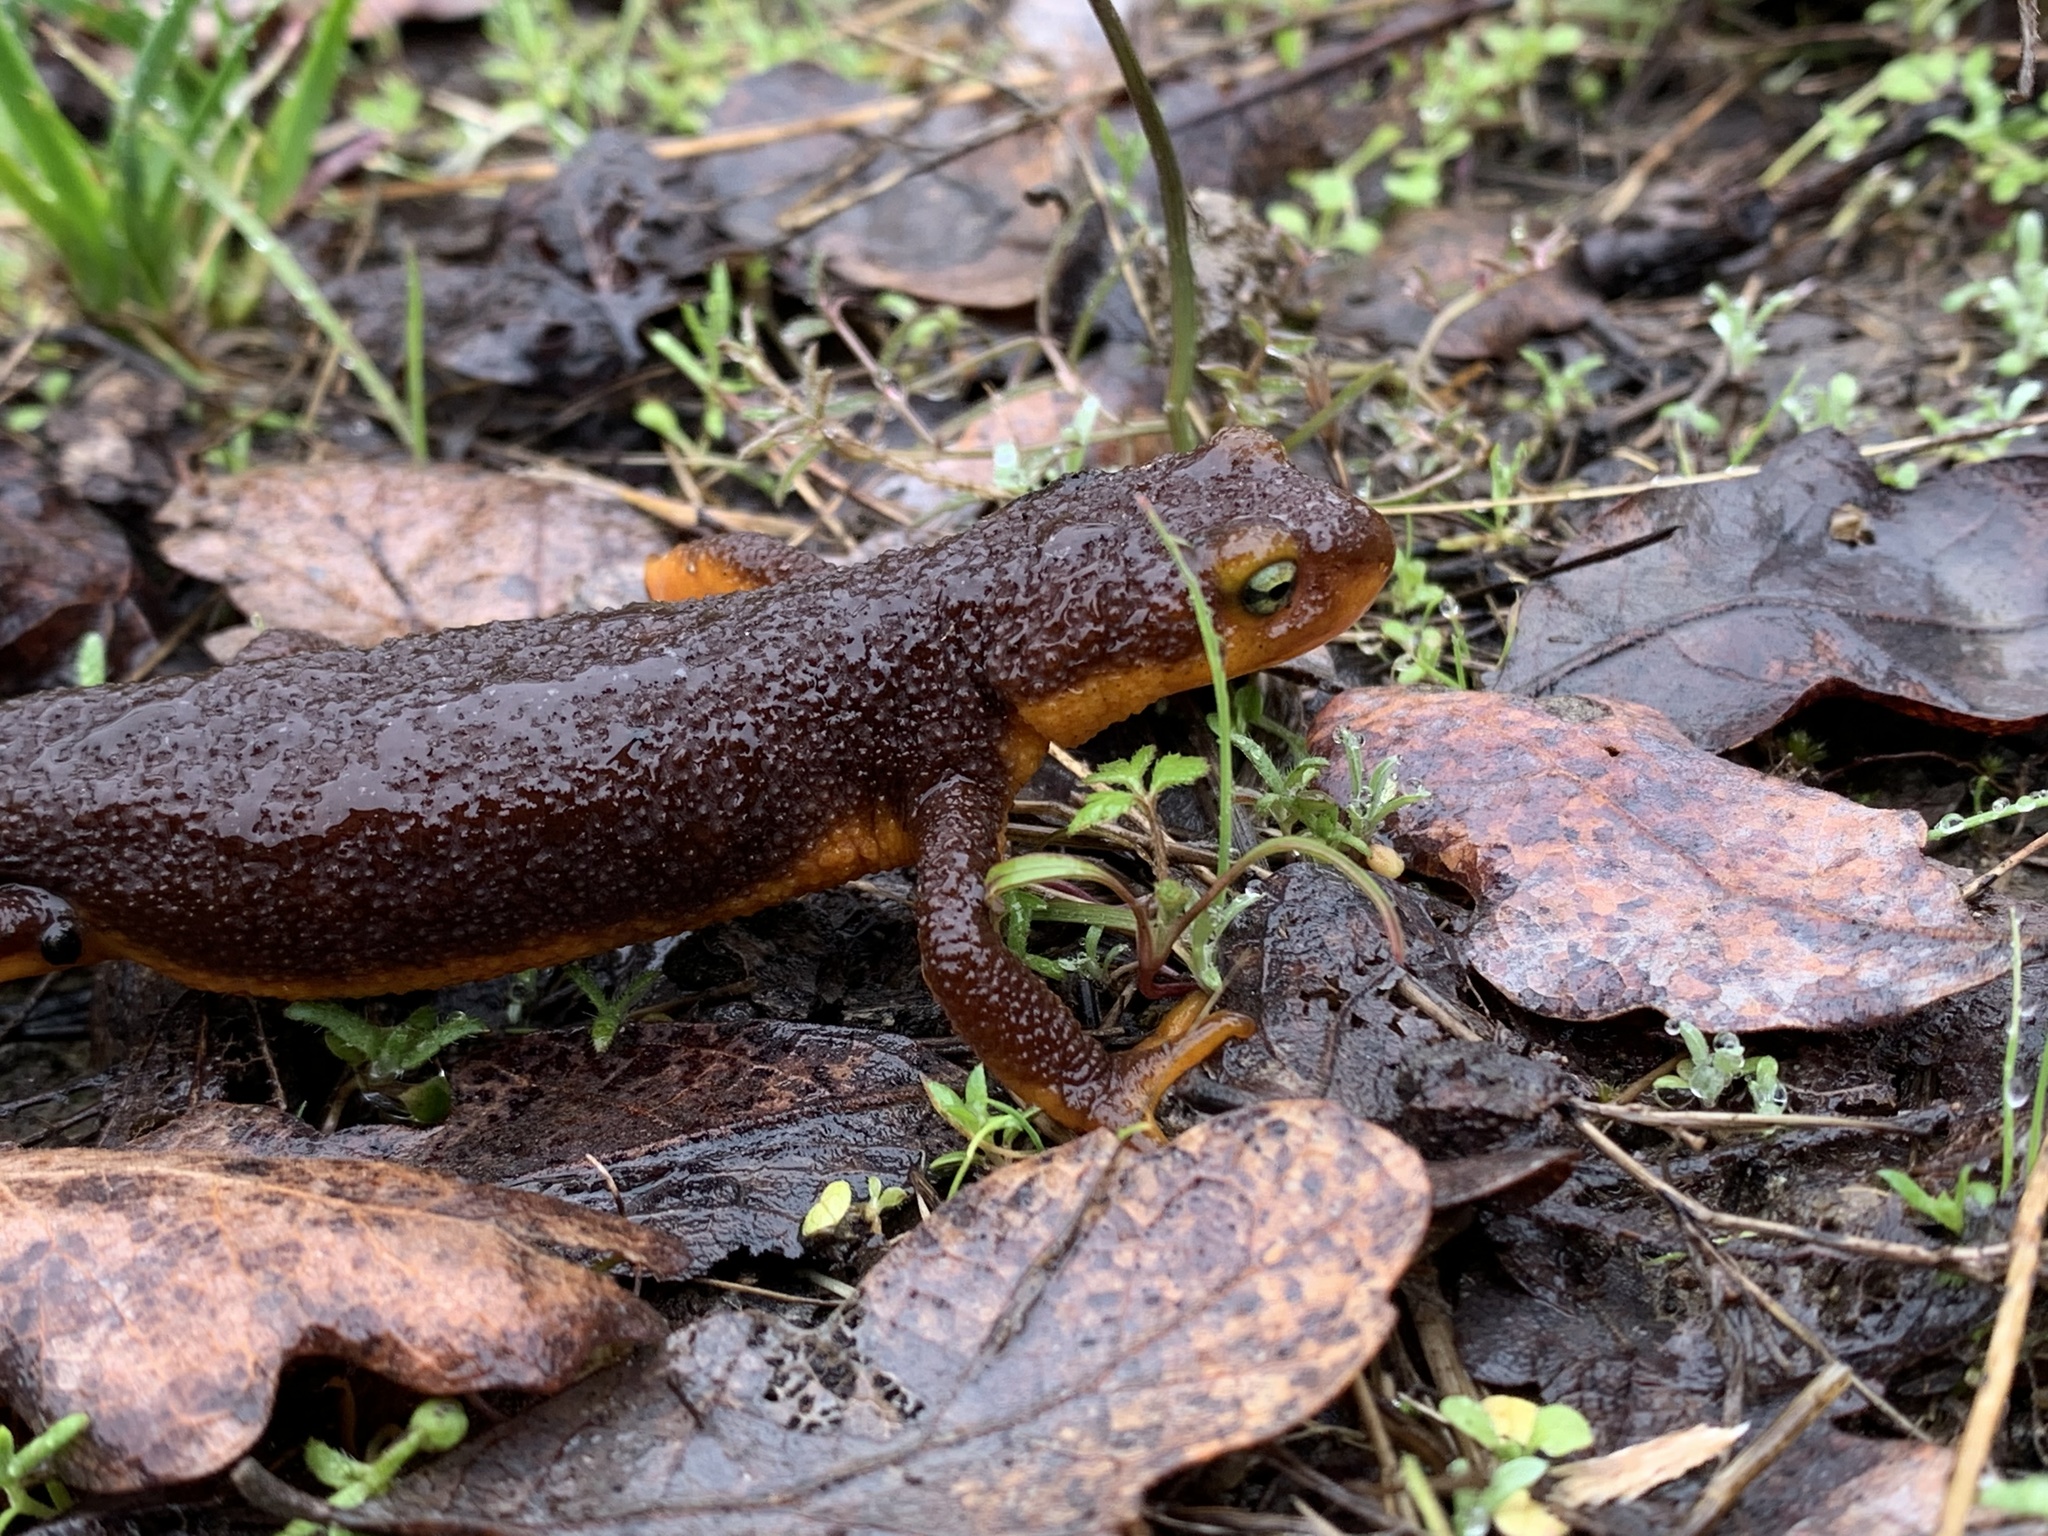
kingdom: Animalia
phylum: Chordata
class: Amphibia
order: Caudata
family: Salamandridae
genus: Taricha
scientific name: Taricha torosa
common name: California newt
